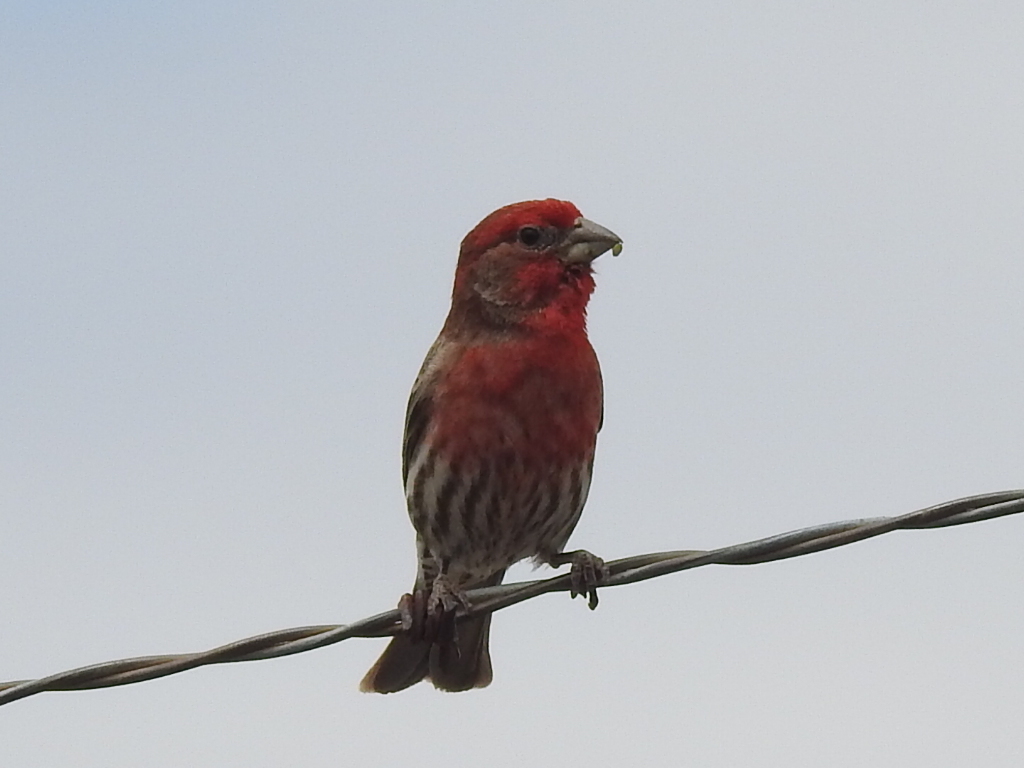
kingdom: Animalia
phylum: Chordata
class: Aves
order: Passeriformes
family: Fringillidae
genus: Haemorhous
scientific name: Haemorhous mexicanus
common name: House finch
